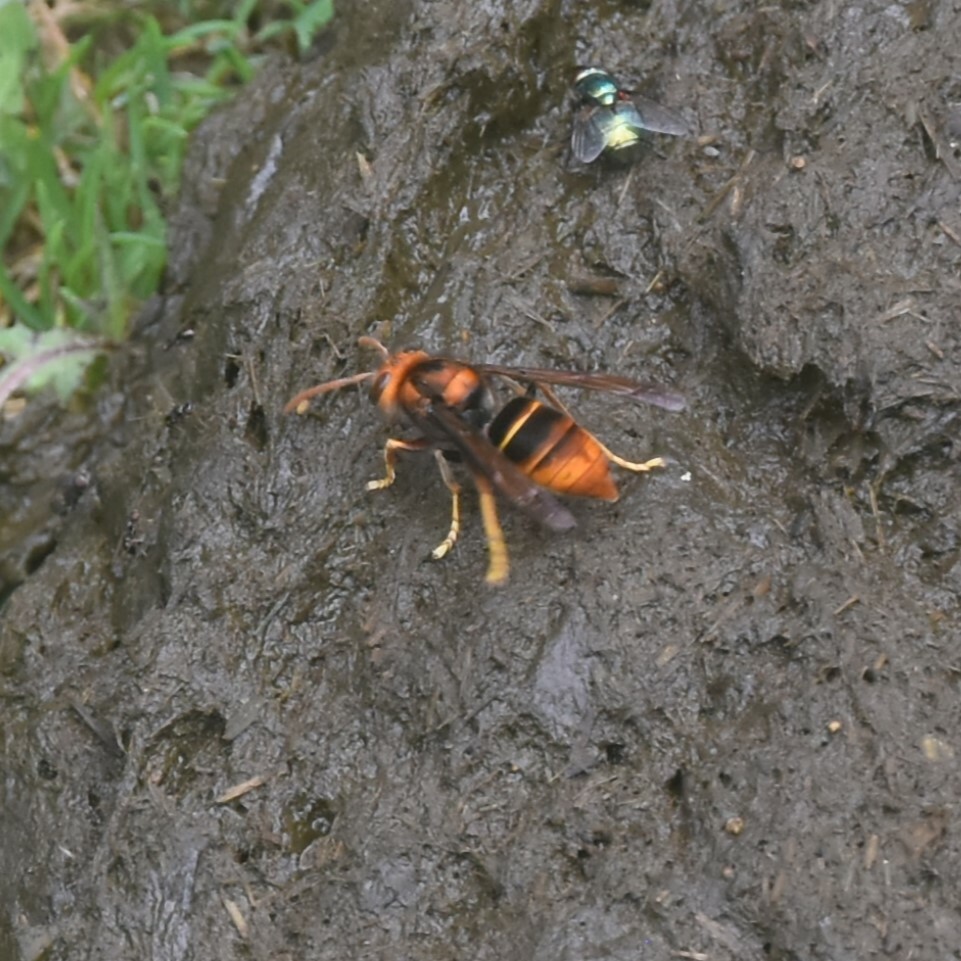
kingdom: Animalia
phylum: Arthropoda
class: Insecta
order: Hymenoptera
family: Vespidae
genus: Vespa
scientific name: Vespa velutina
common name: Asian hornet
